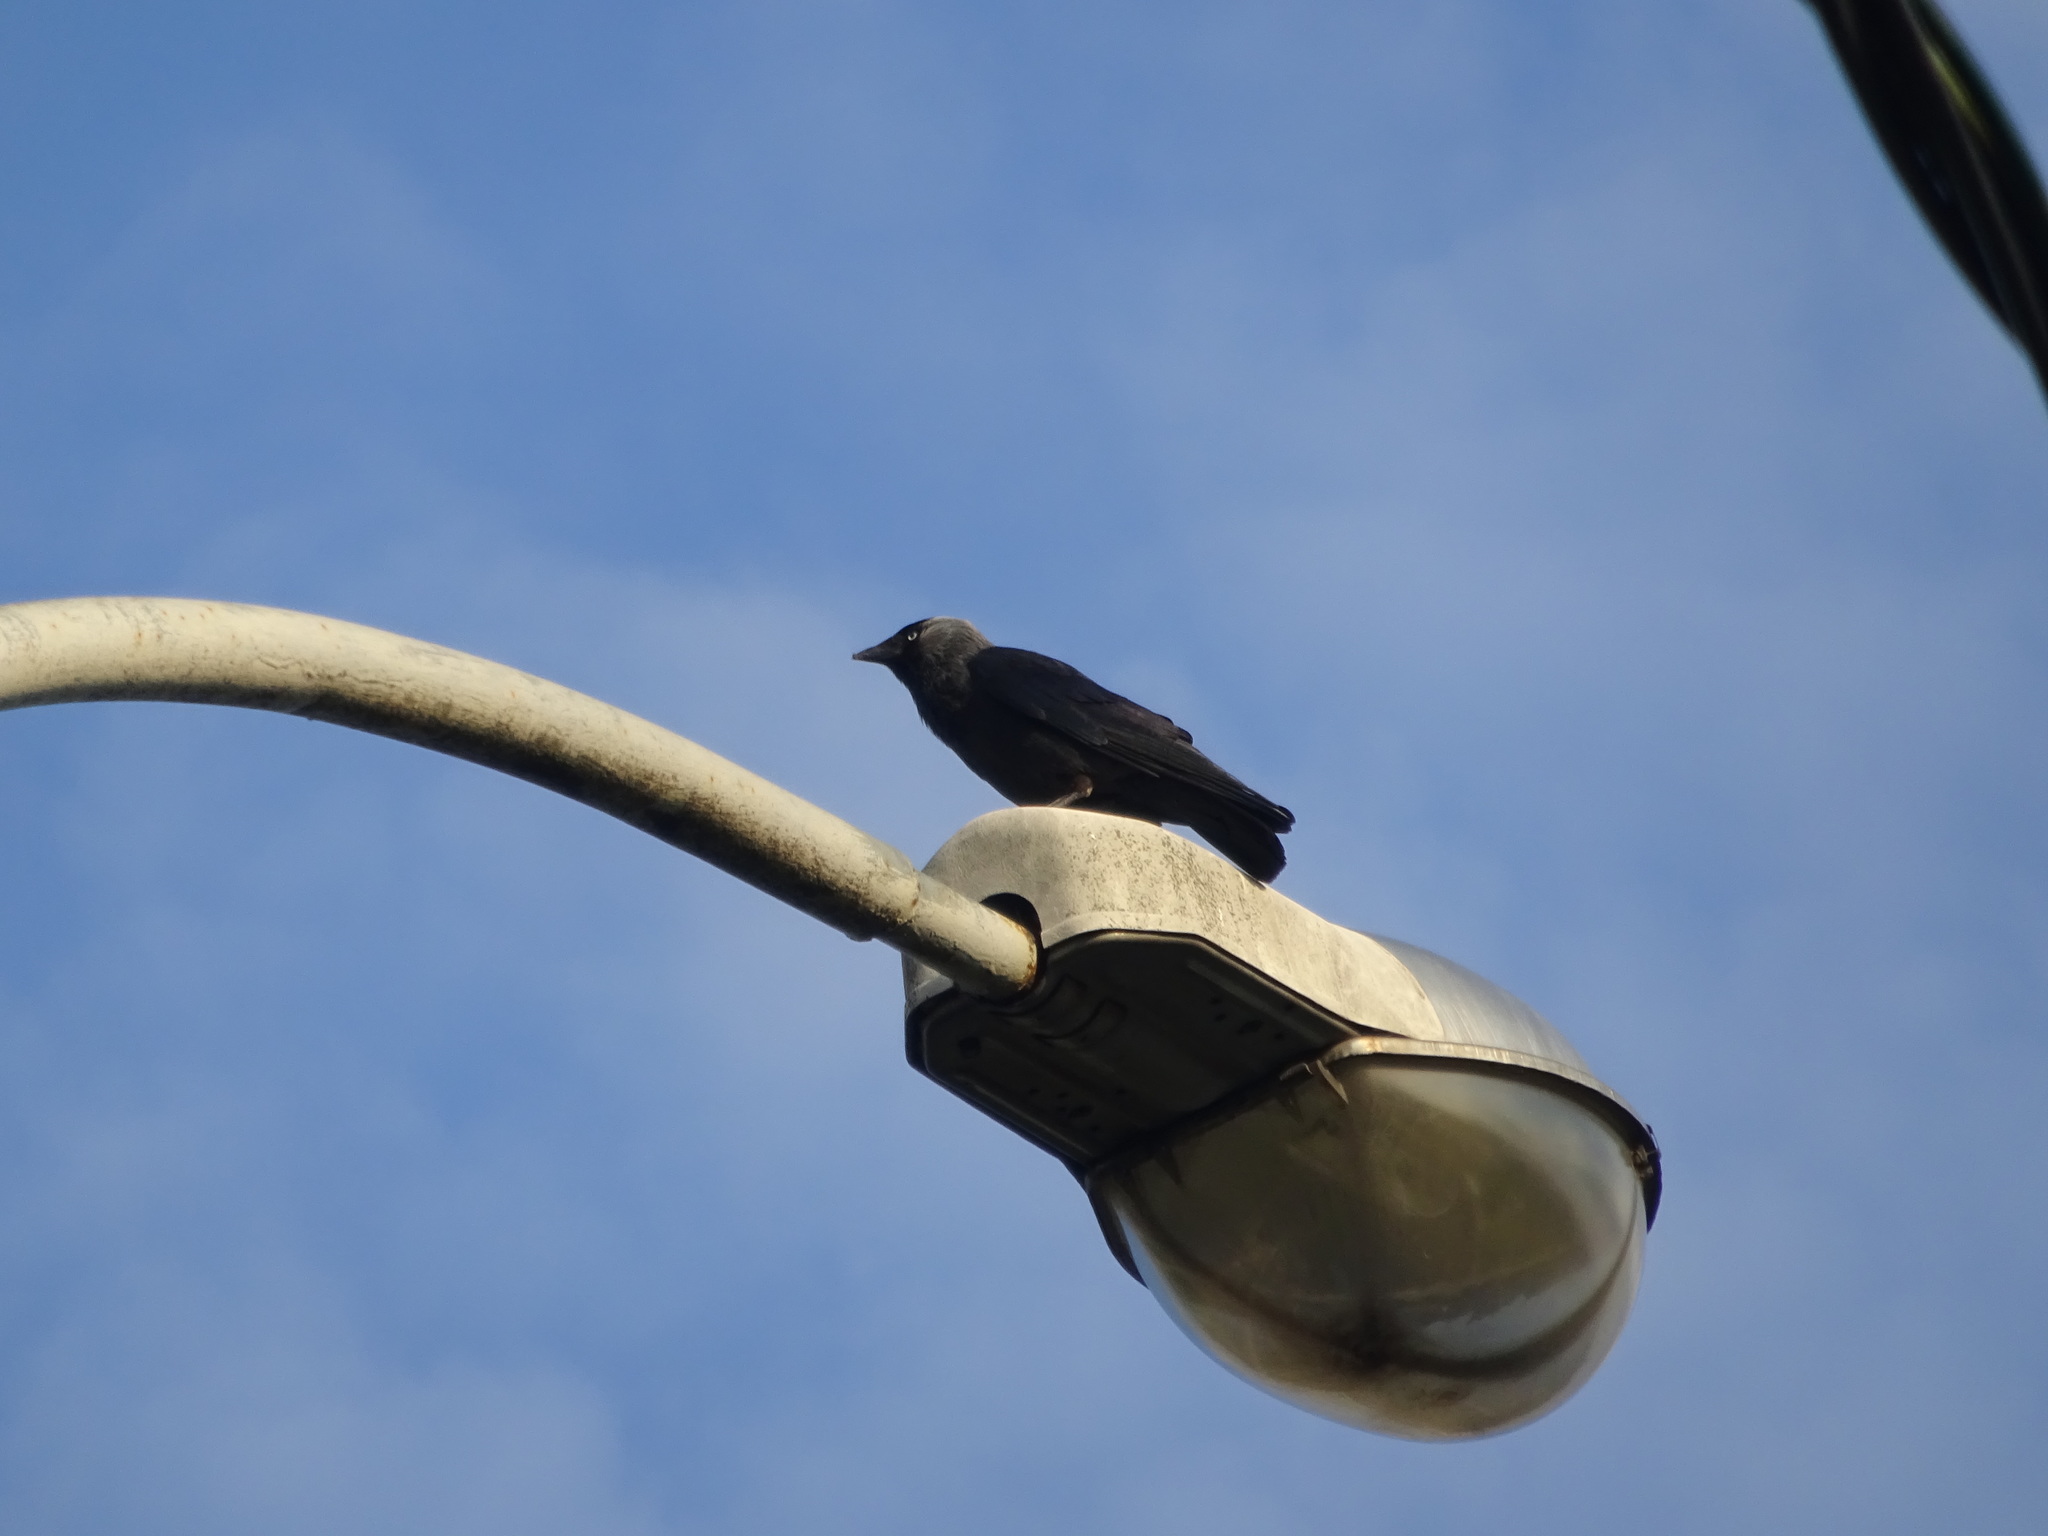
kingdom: Animalia
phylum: Chordata
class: Aves
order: Passeriformes
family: Corvidae
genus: Coloeus
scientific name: Coloeus monedula
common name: Western jackdaw
